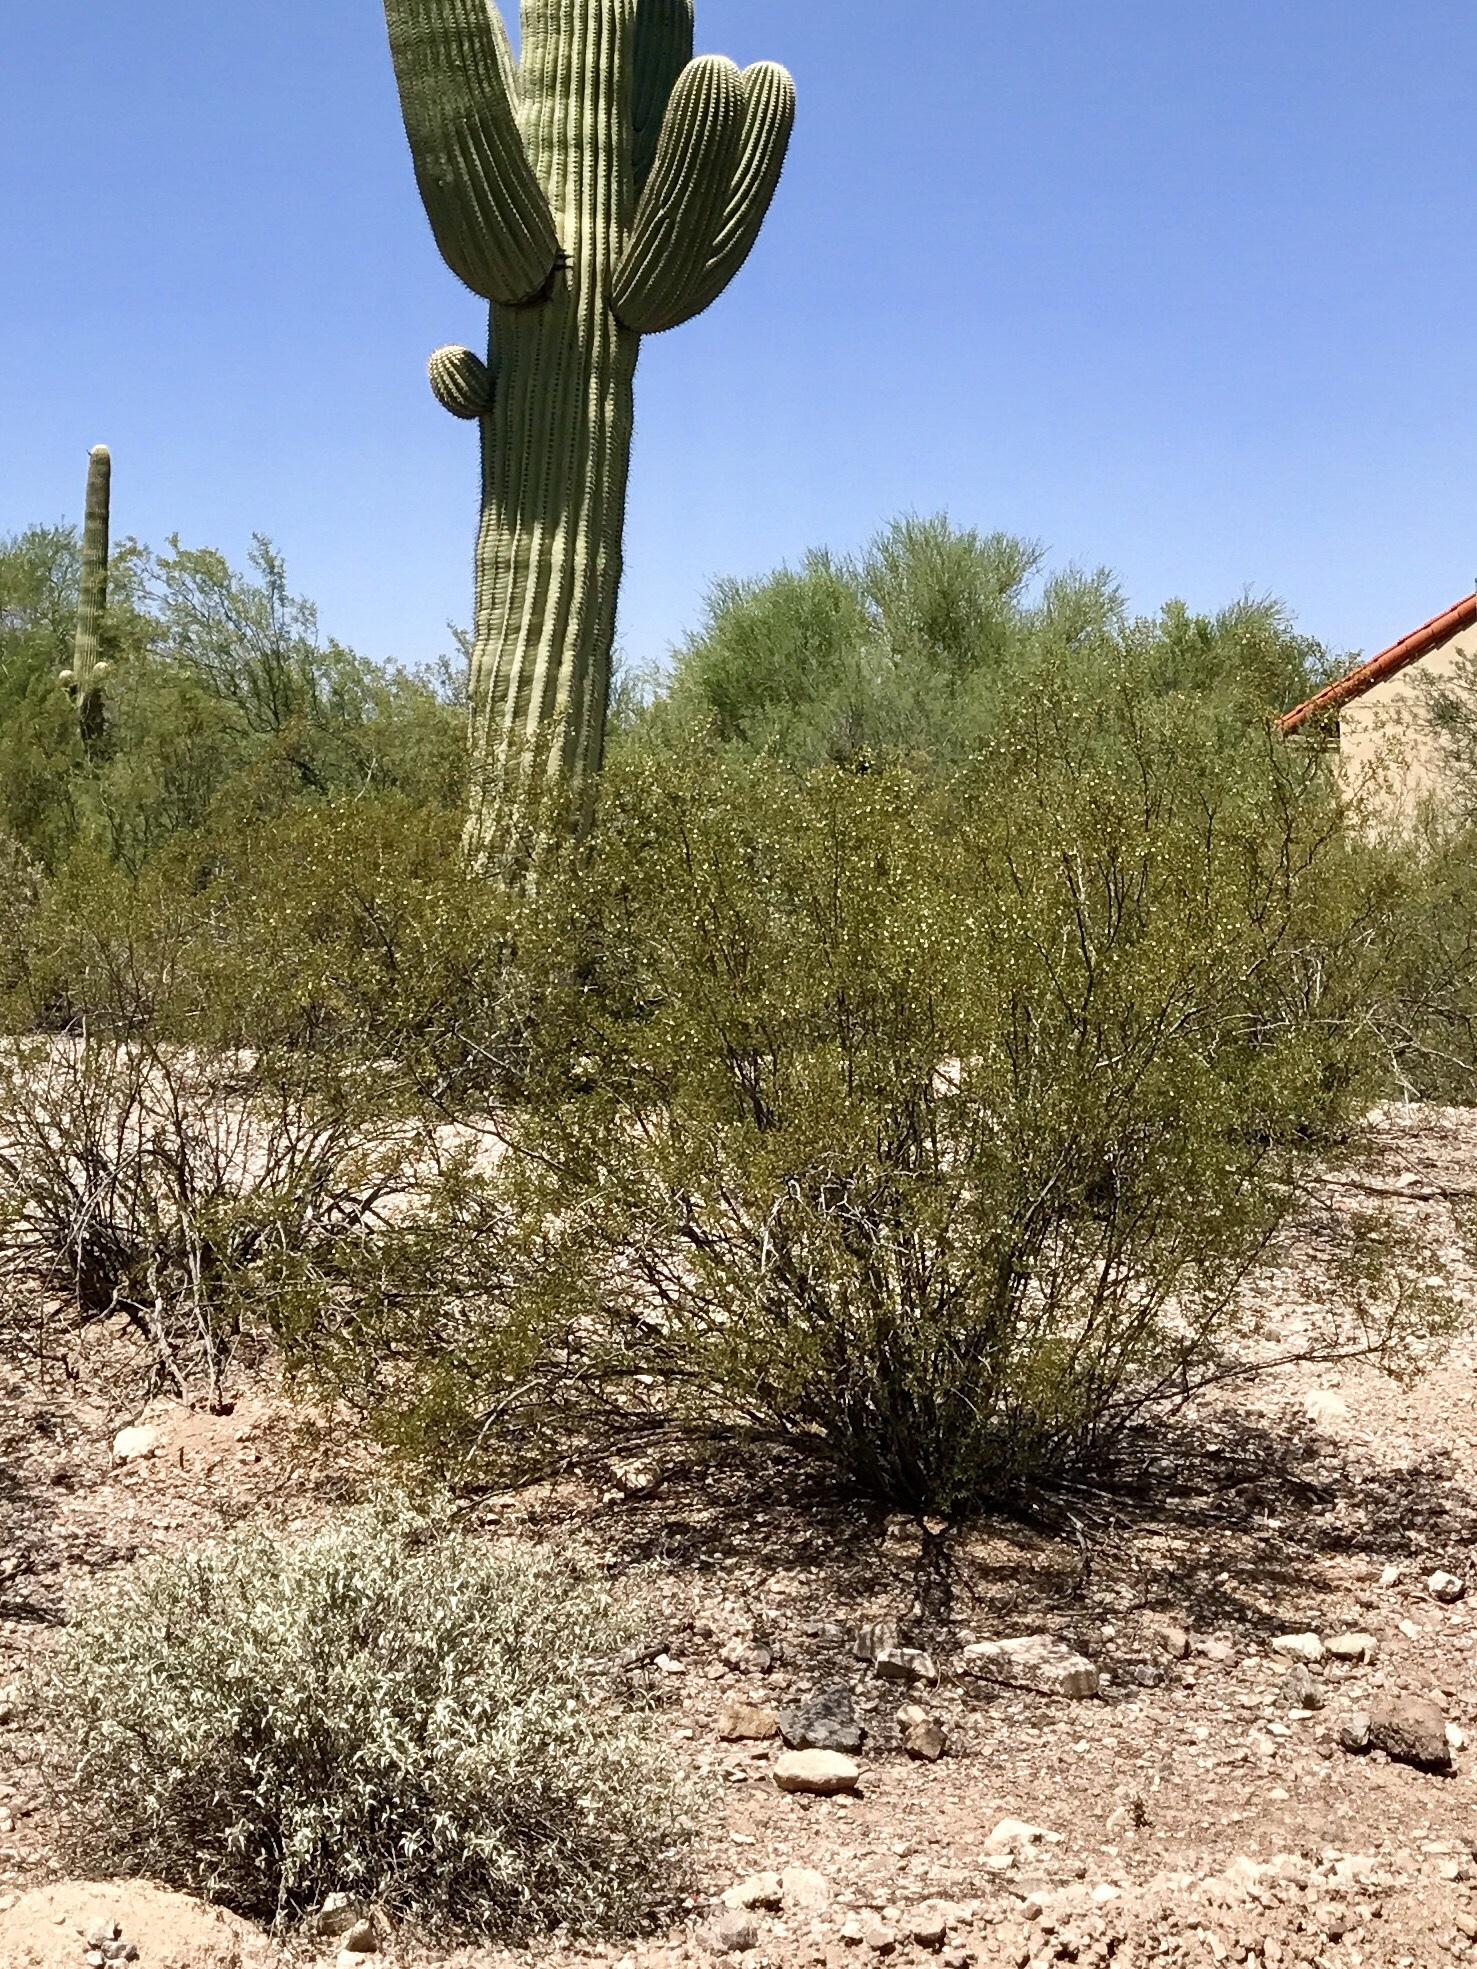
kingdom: Plantae
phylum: Tracheophyta
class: Magnoliopsida
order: Zygophyllales
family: Zygophyllaceae
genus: Larrea
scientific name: Larrea tridentata
